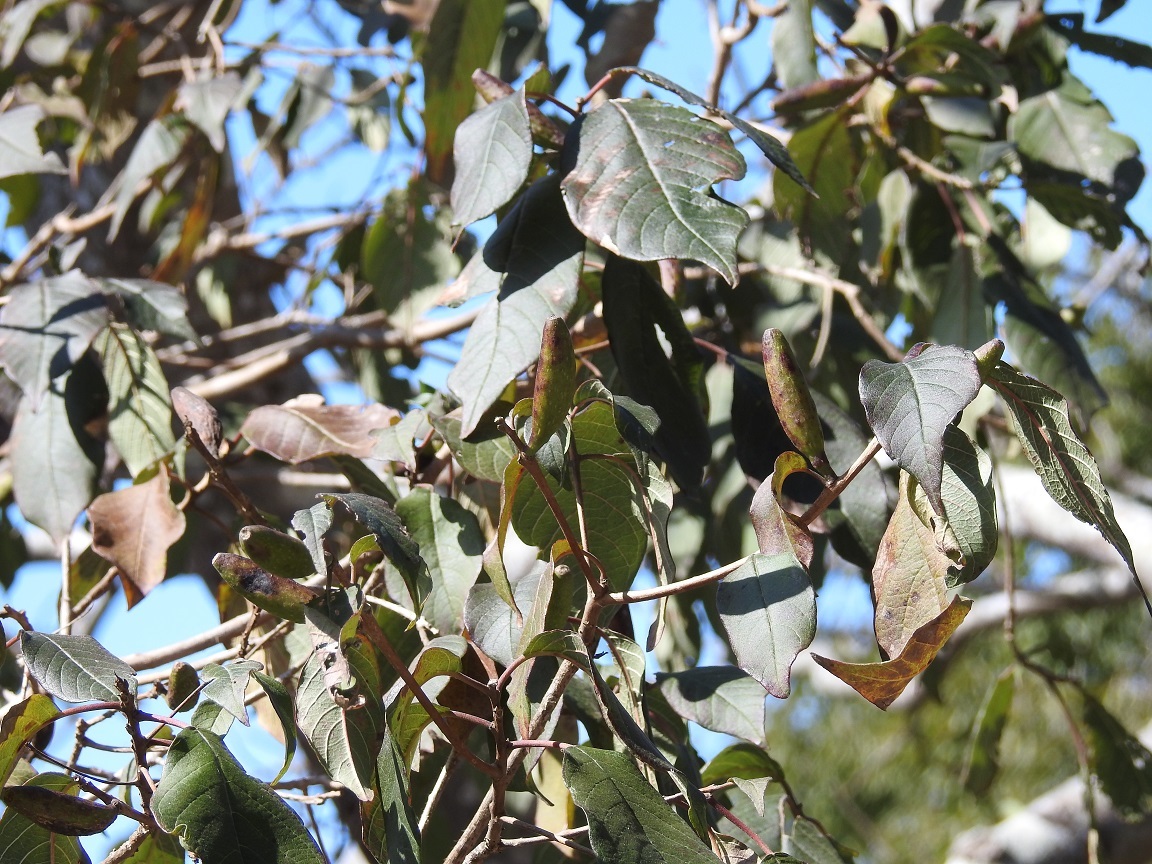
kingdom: Plantae
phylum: Tracheophyta
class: Magnoliopsida
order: Myrtales
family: Onagraceae
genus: Hauya
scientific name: Hauya elegans
